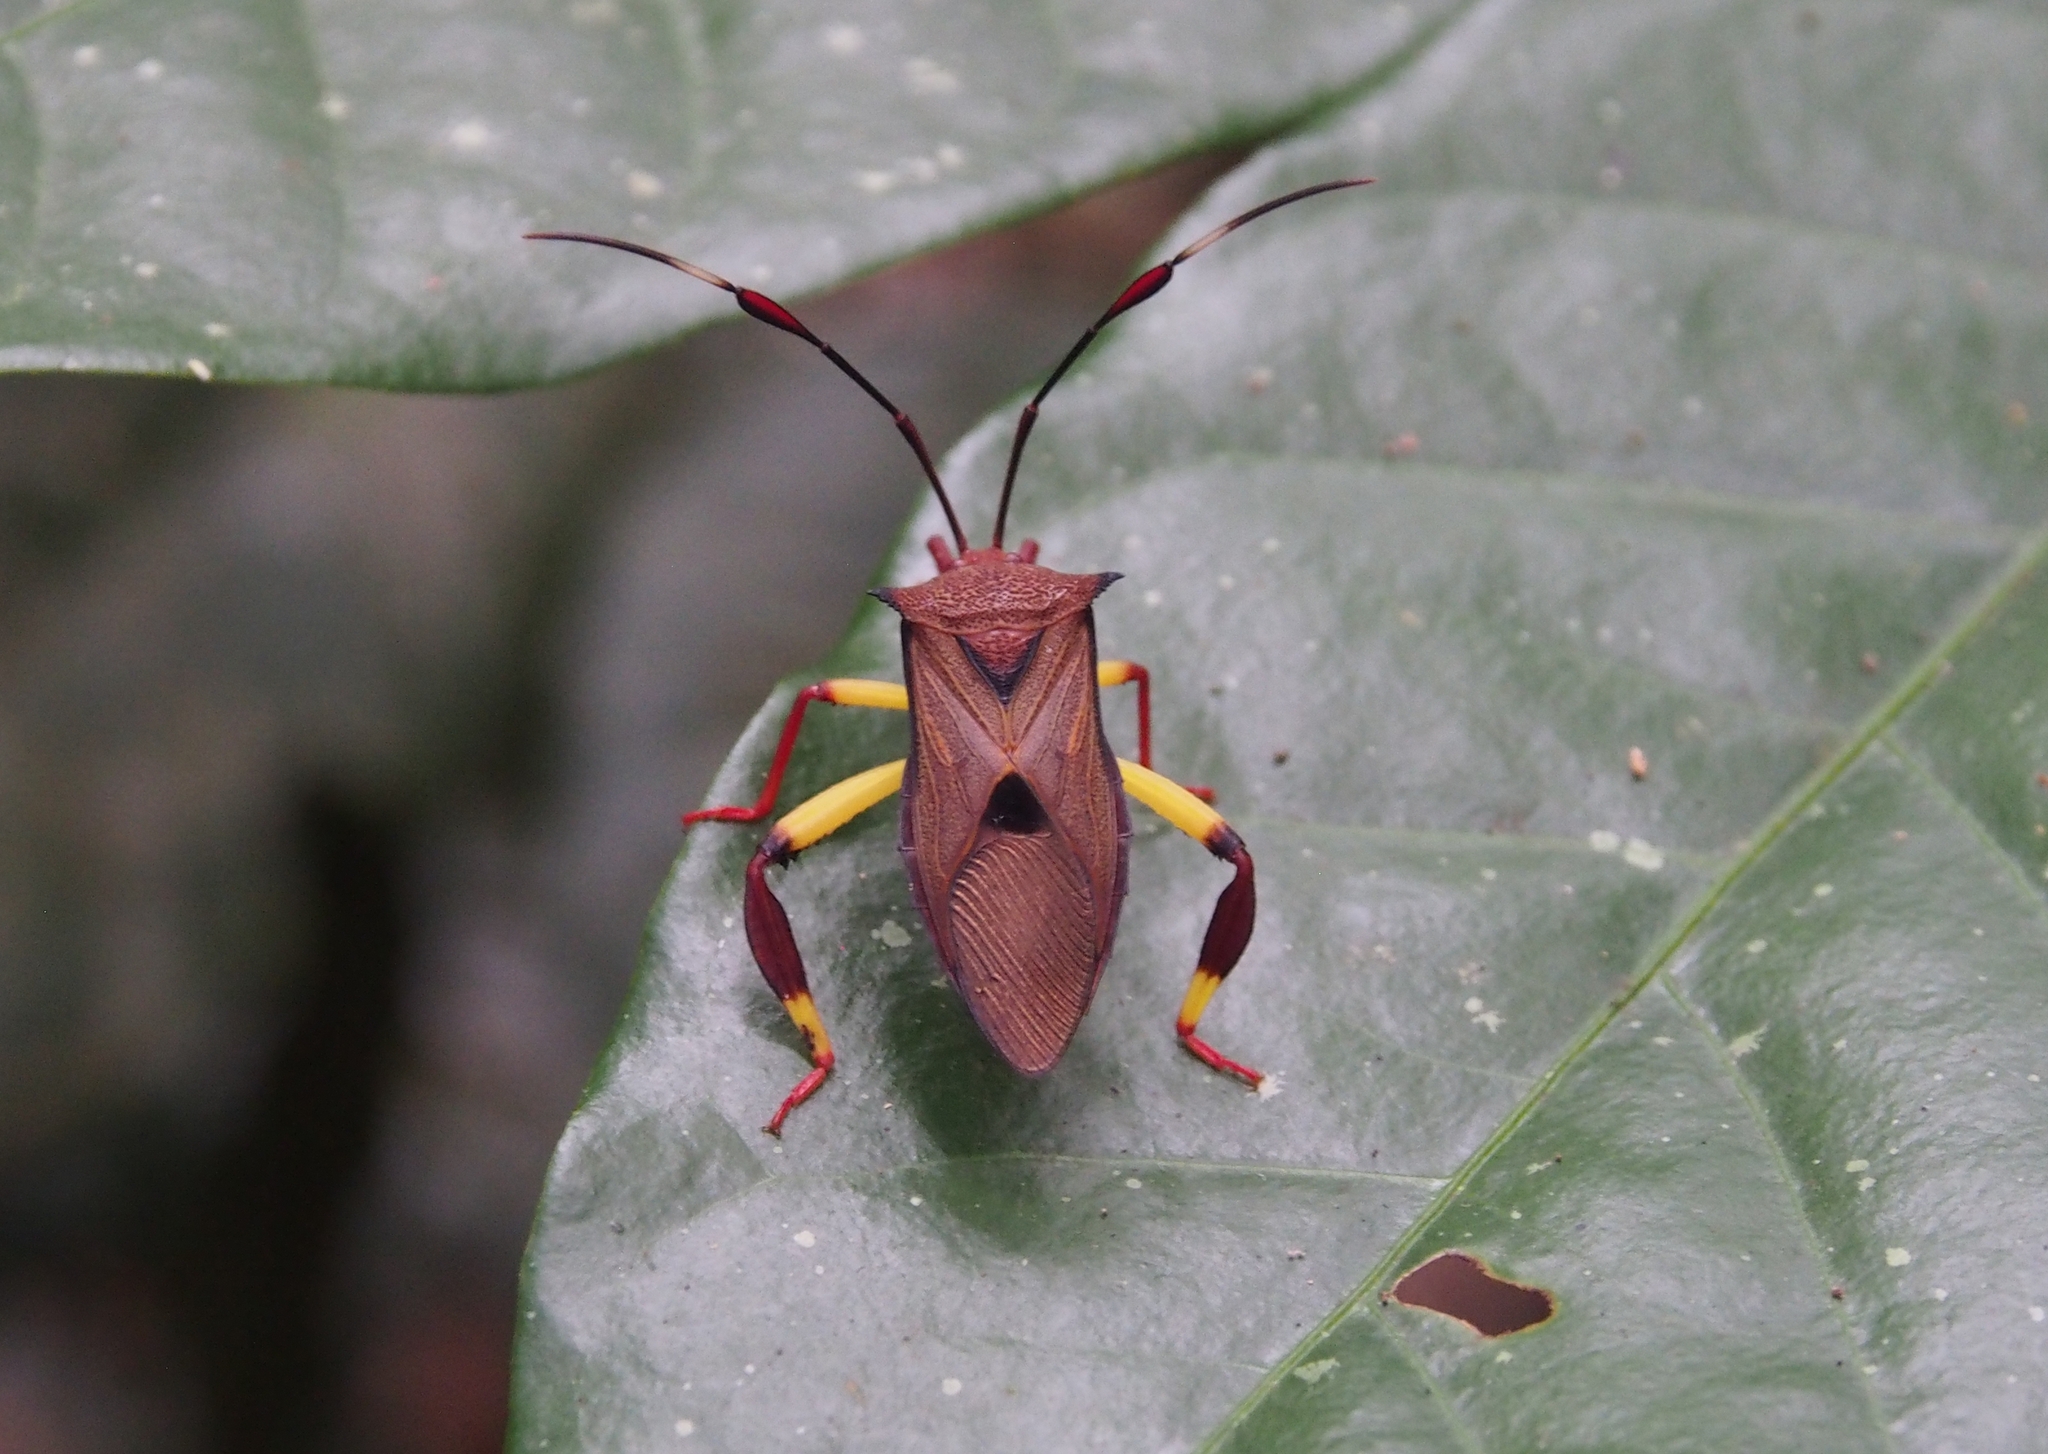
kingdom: Animalia
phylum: Arthropoda
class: Insecta
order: Hemiptera
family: Coreidae
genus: Melucha
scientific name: Melucha biolleyi
